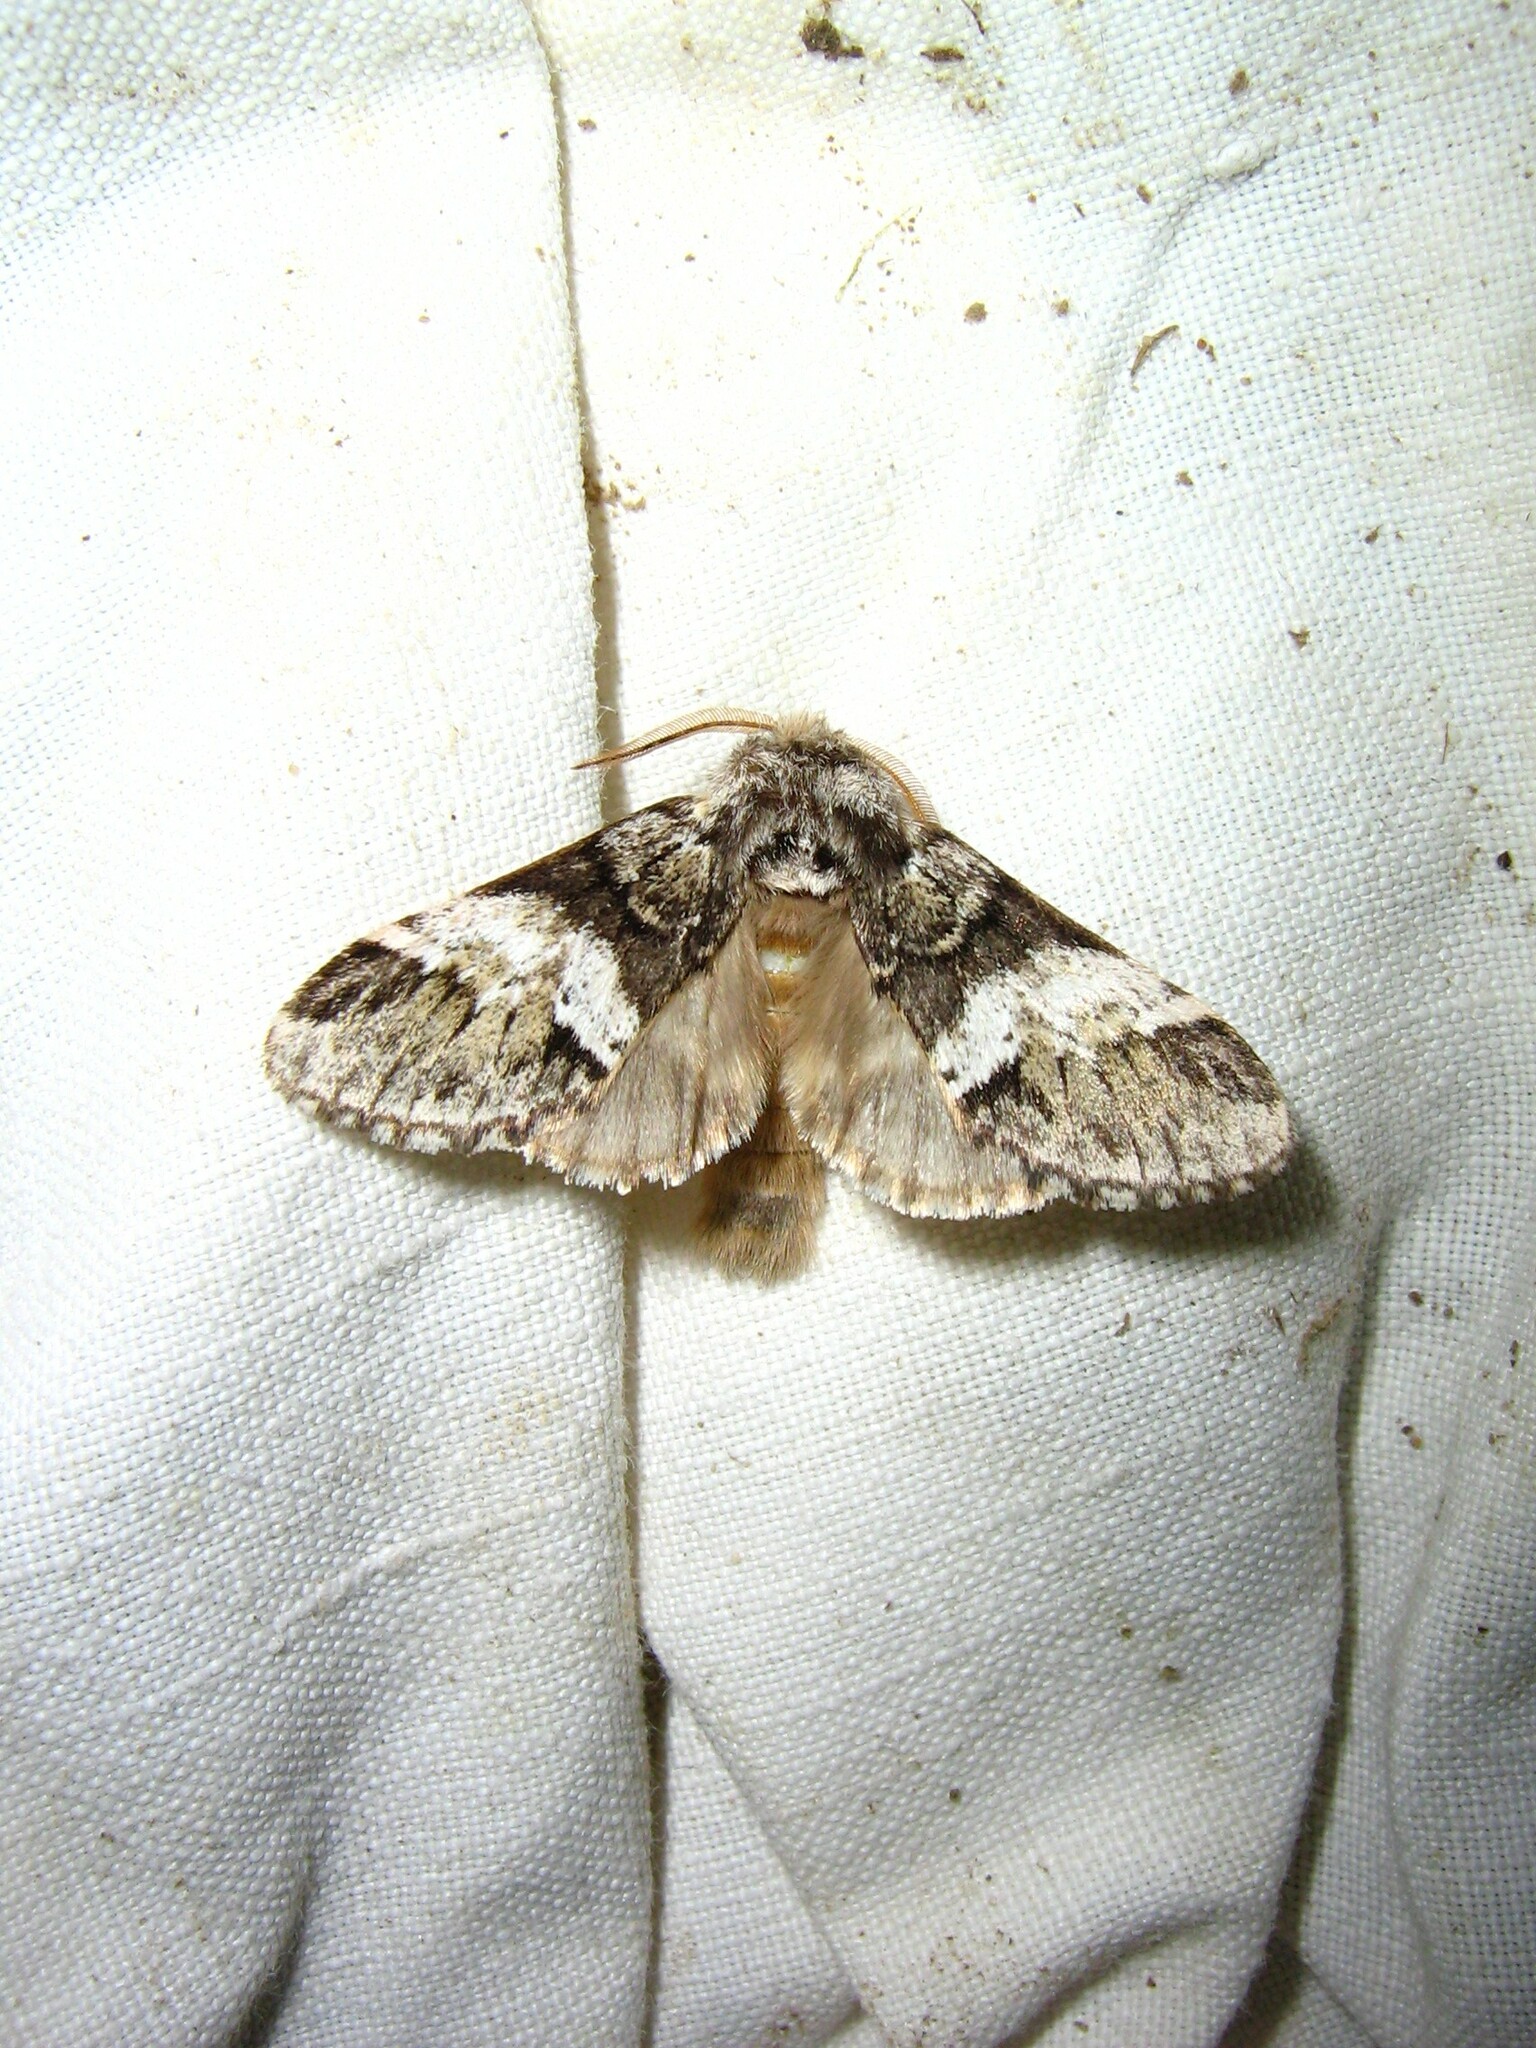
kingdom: Animalia
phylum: Arthropoda
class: Insecta
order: Lepidoptera
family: Notodontidae
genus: Drymonia
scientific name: Drymonia dodonaea
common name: Marbled brown
